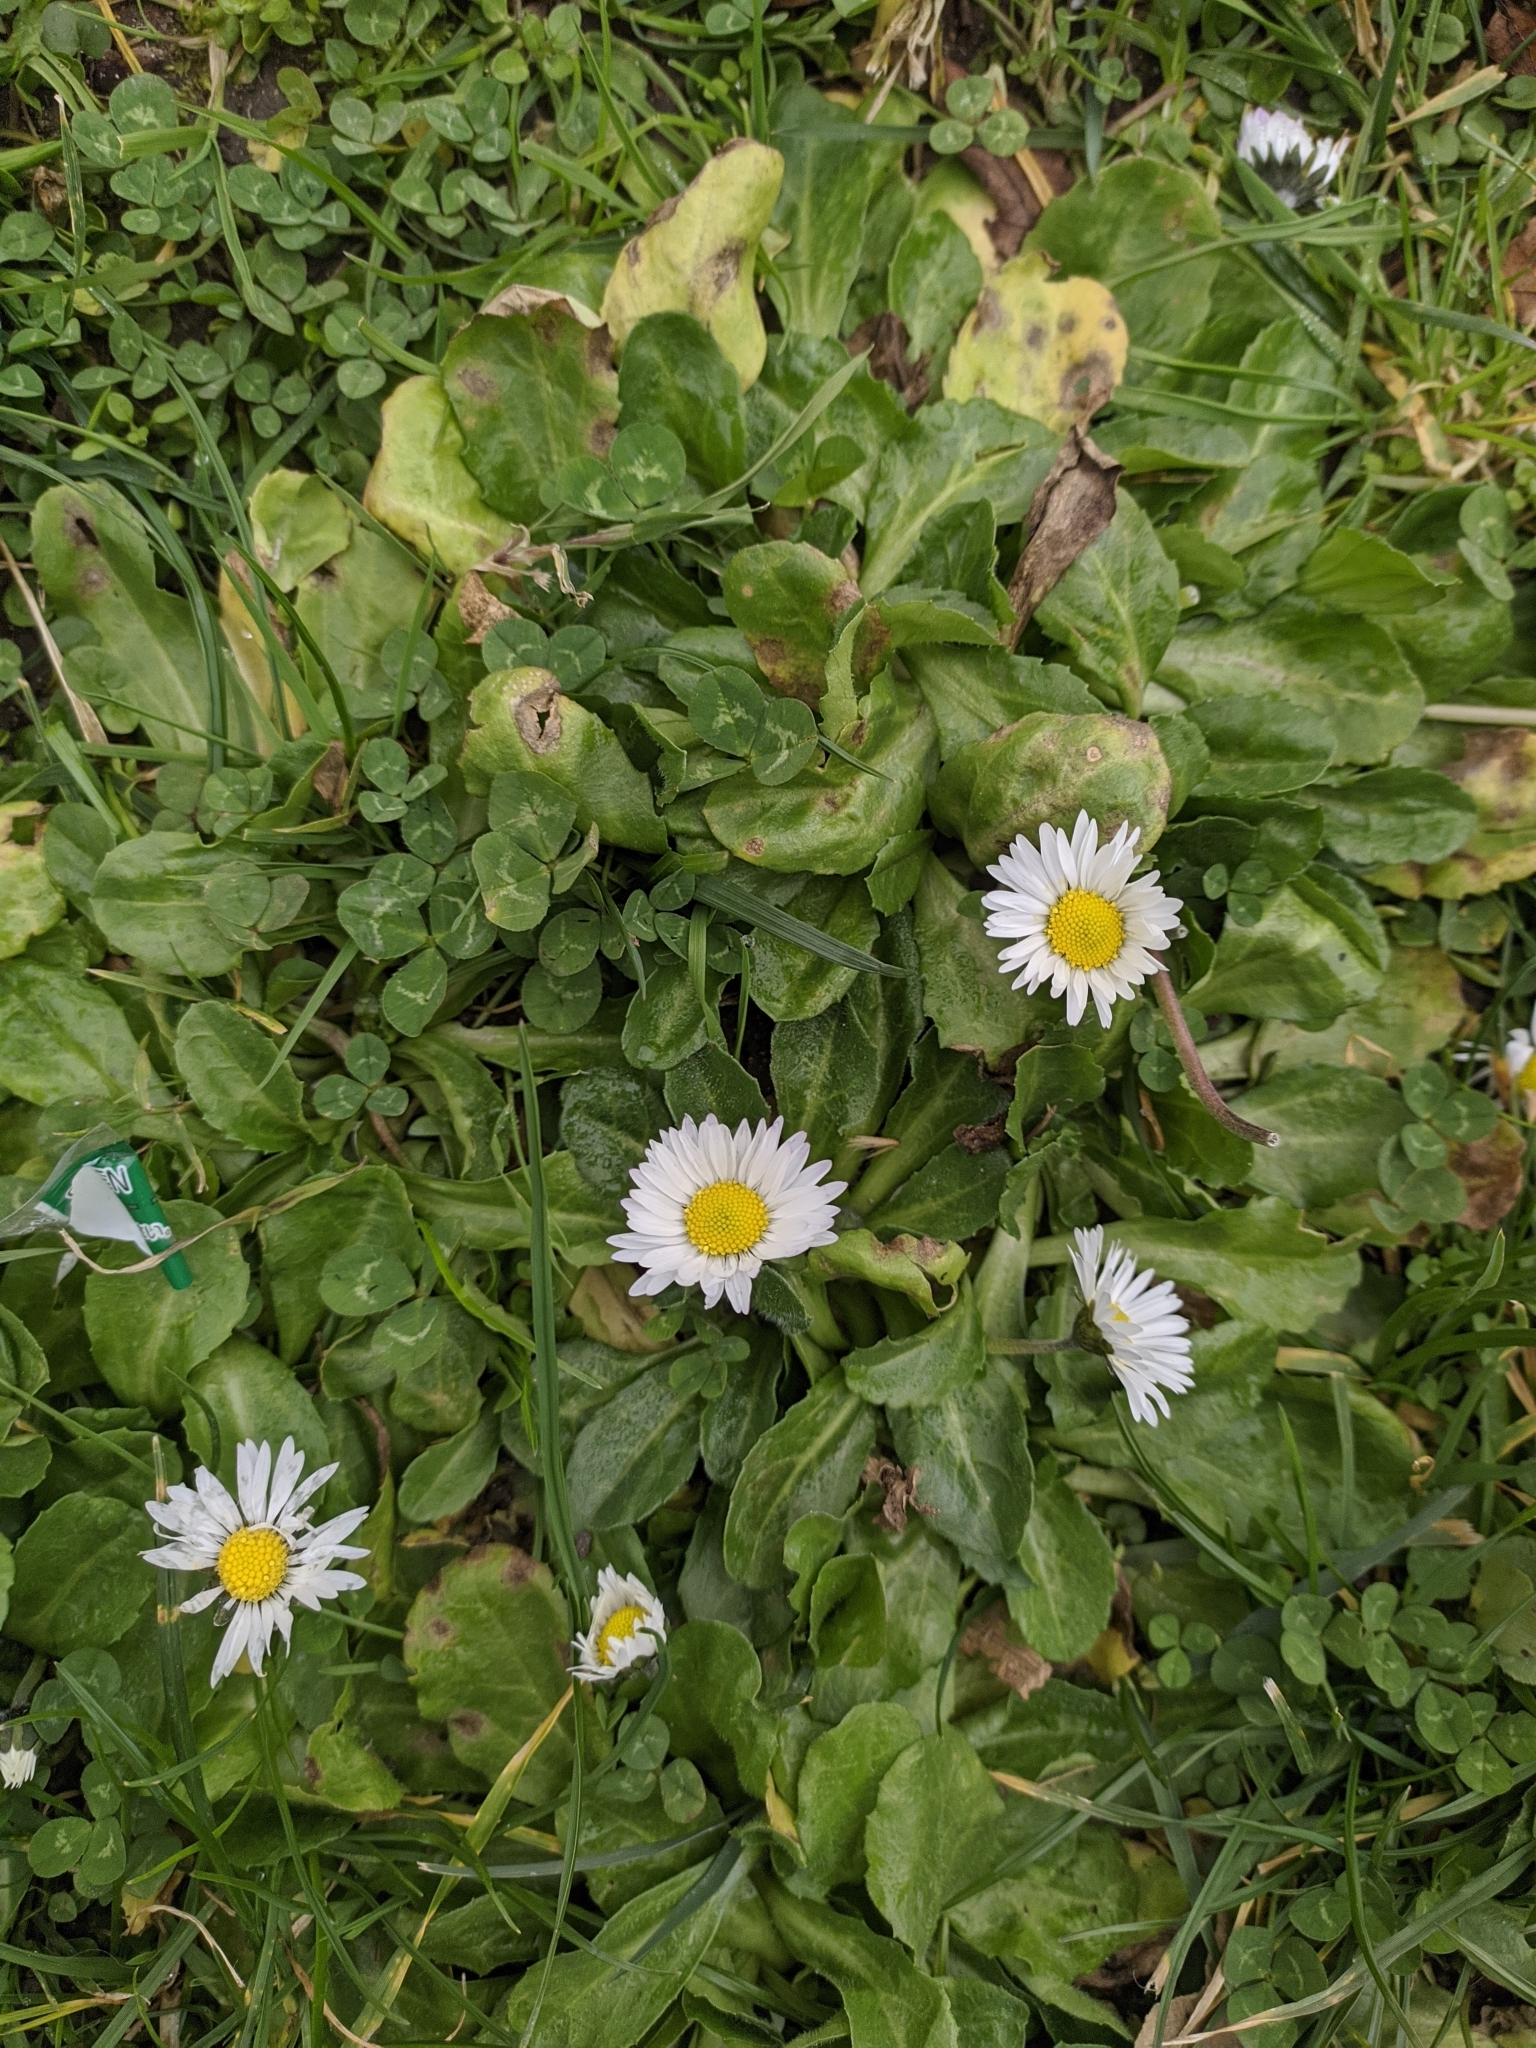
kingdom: Plantae
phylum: Tracheophyta
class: Magnoliopsida
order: Asterales
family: Asteraceae
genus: Bellis
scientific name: Bellis perennis
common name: Lawndaisy
